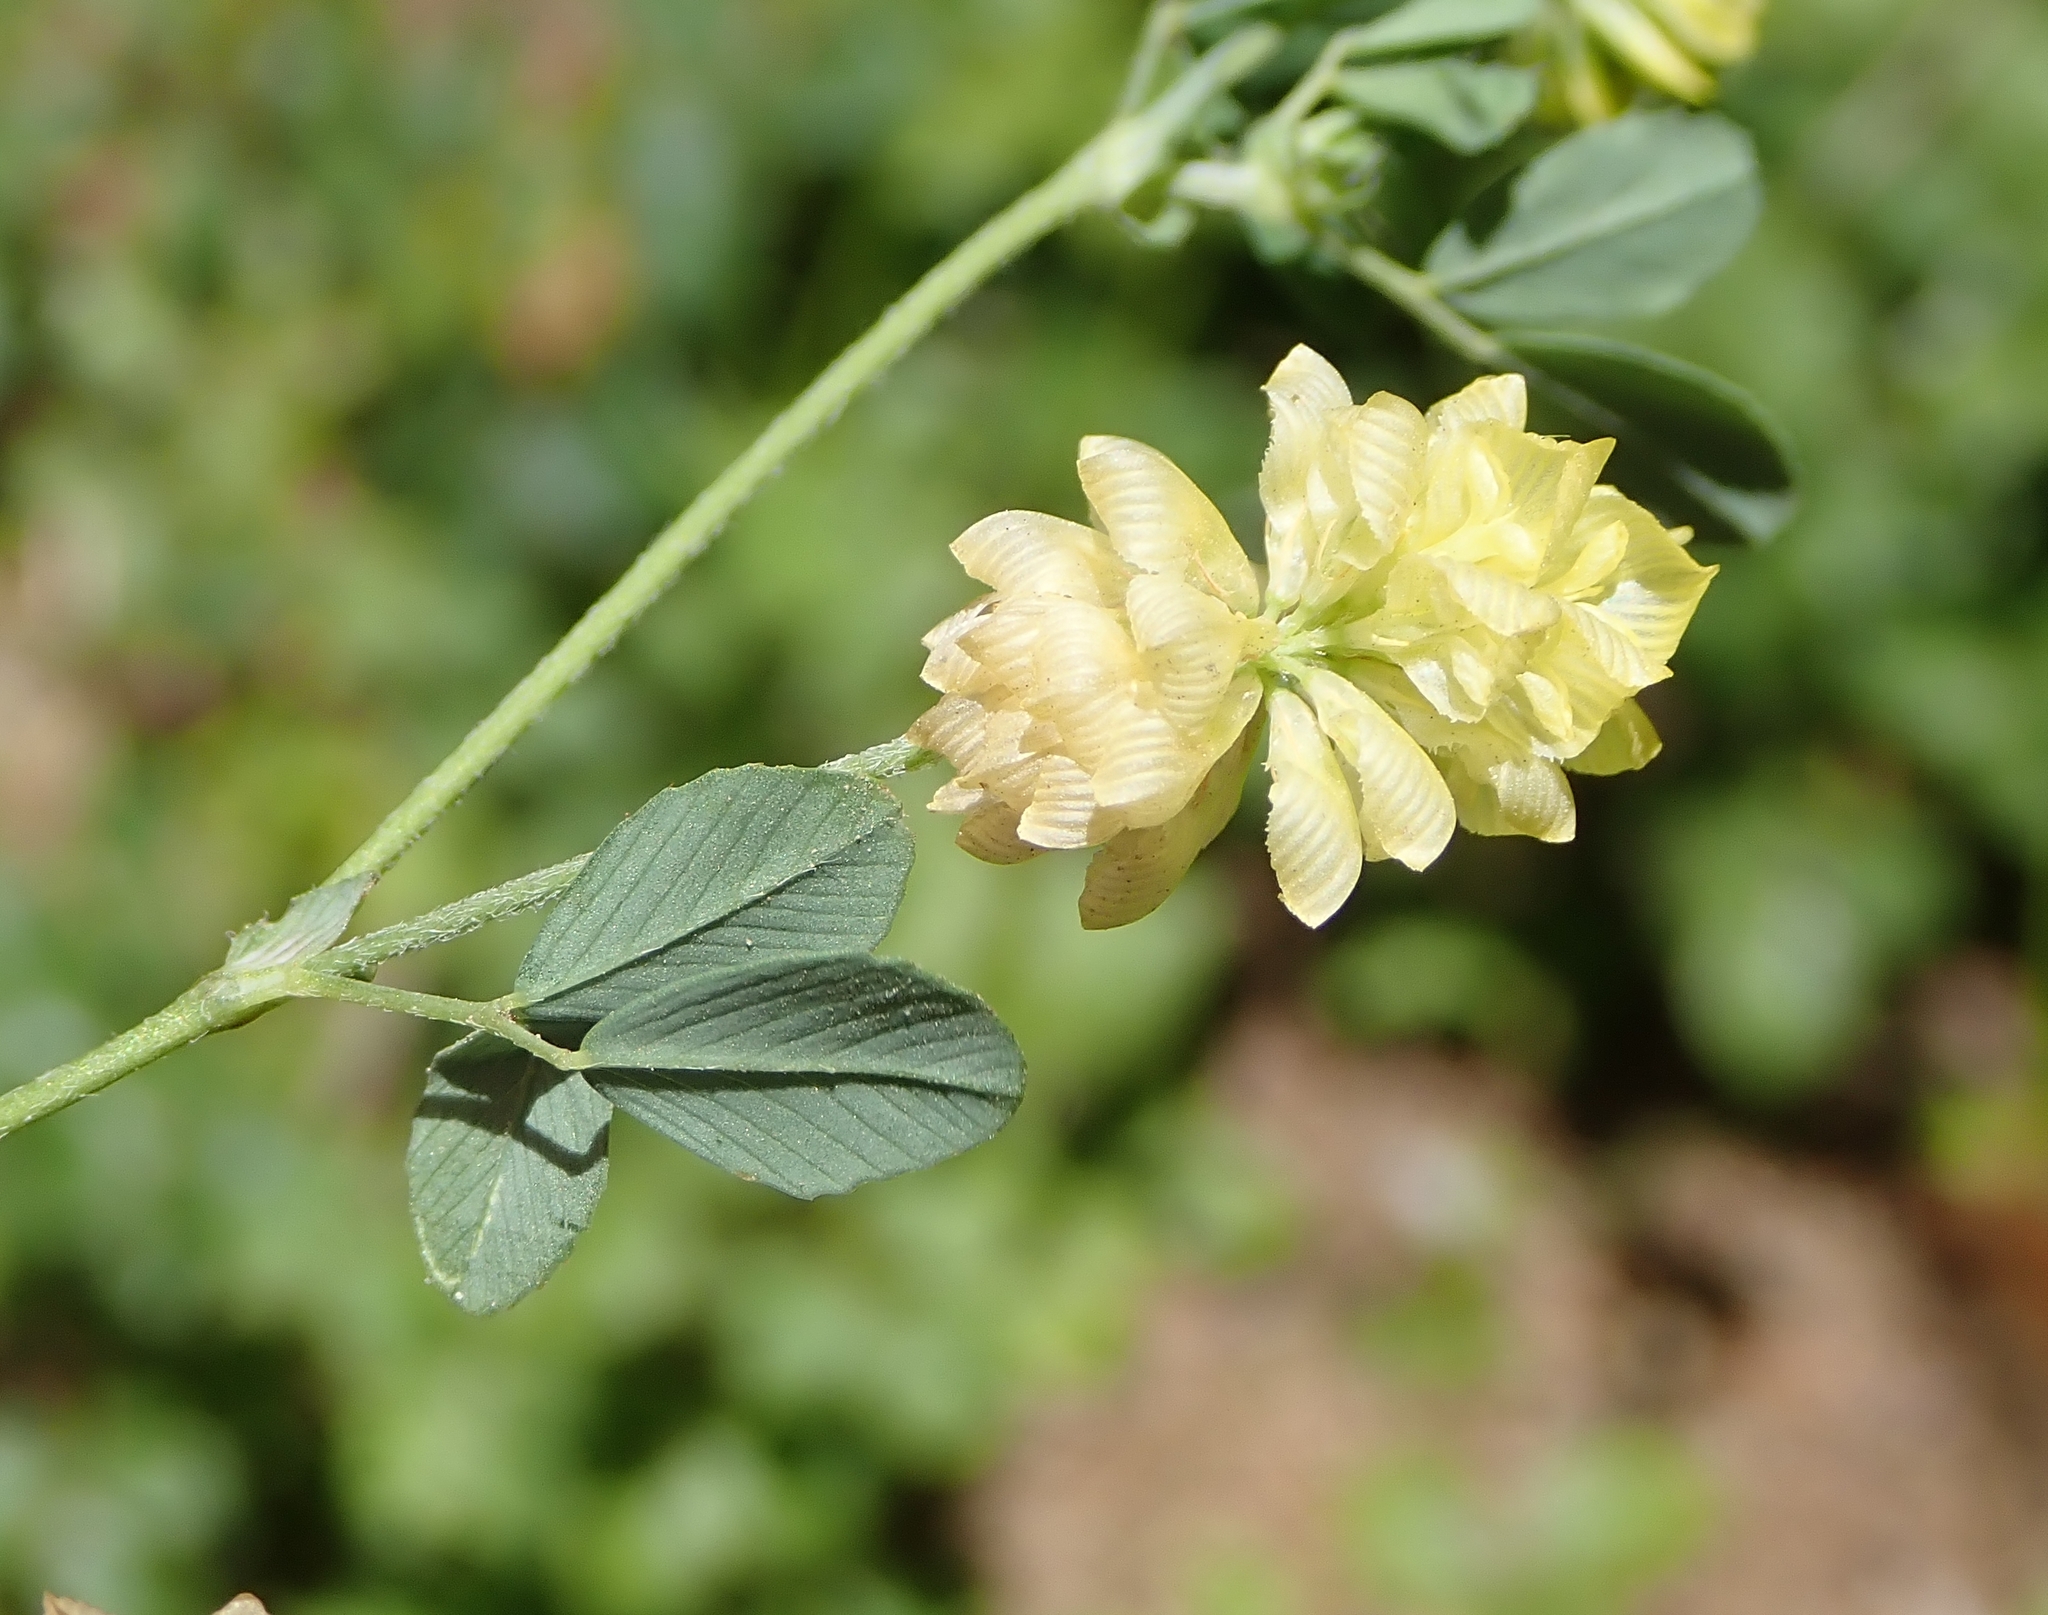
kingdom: Plantae
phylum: Tracheophyta
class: Magnoliopsida
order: Fabales
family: Fabaceae
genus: Trifolium
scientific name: Trifolium campestre
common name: Field clover
